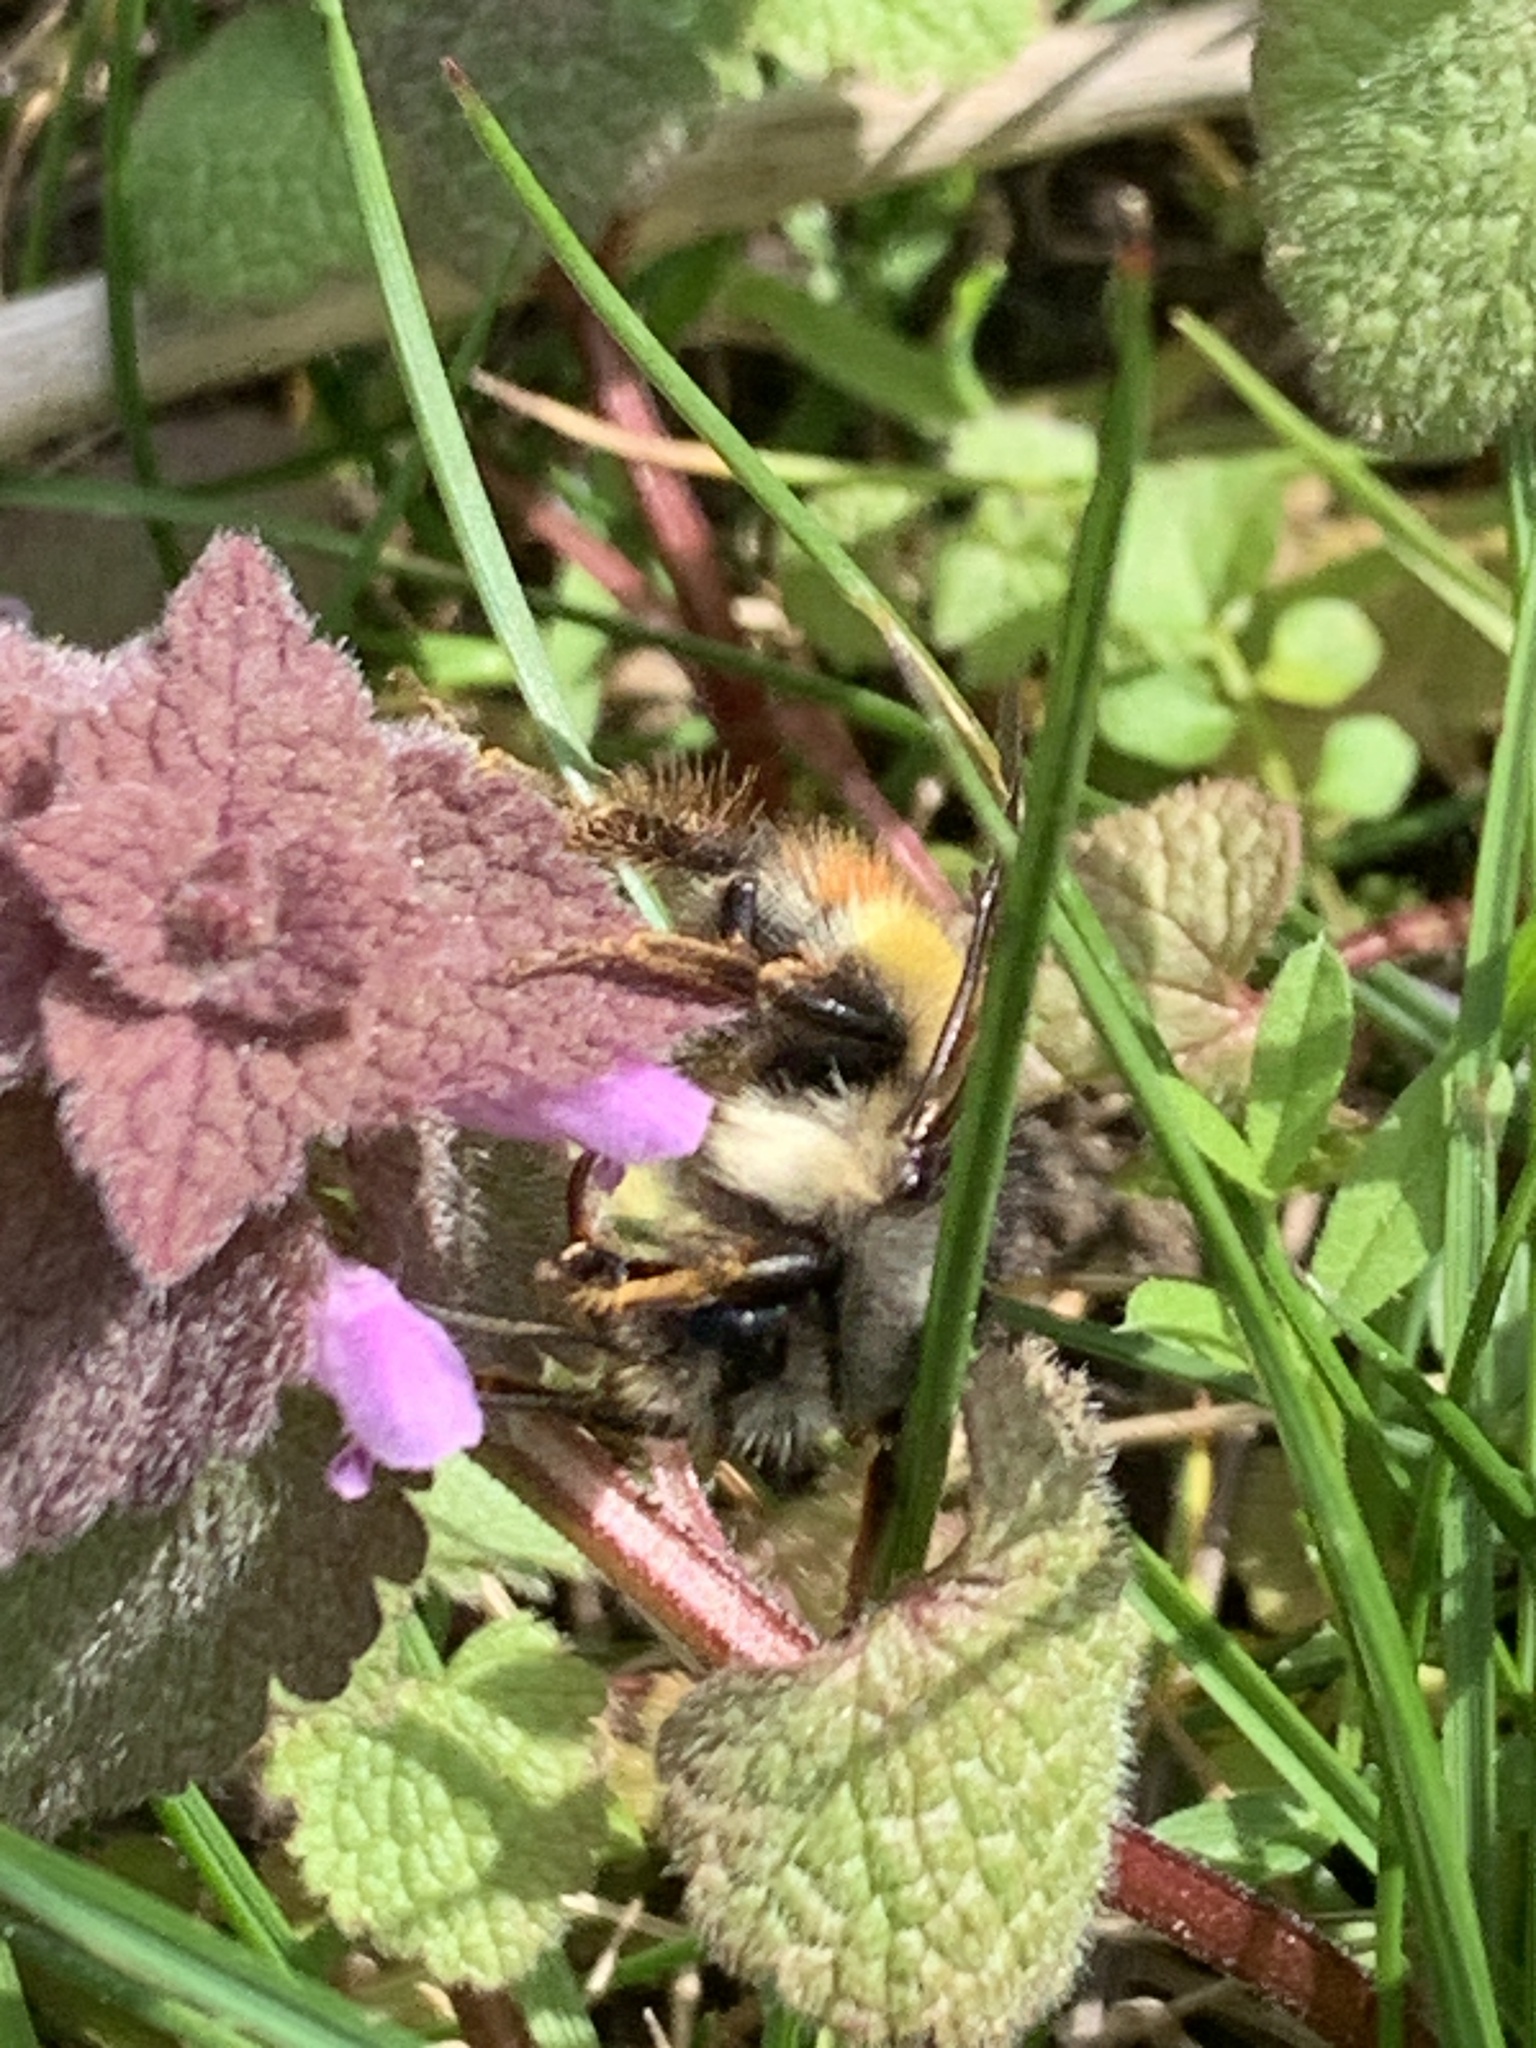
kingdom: Animalia
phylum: Arthropoda
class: Insecta
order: Hymenoptera
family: Apidae
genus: Bombus
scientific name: Bombus flavifrons
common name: Yellow head bumble bee
